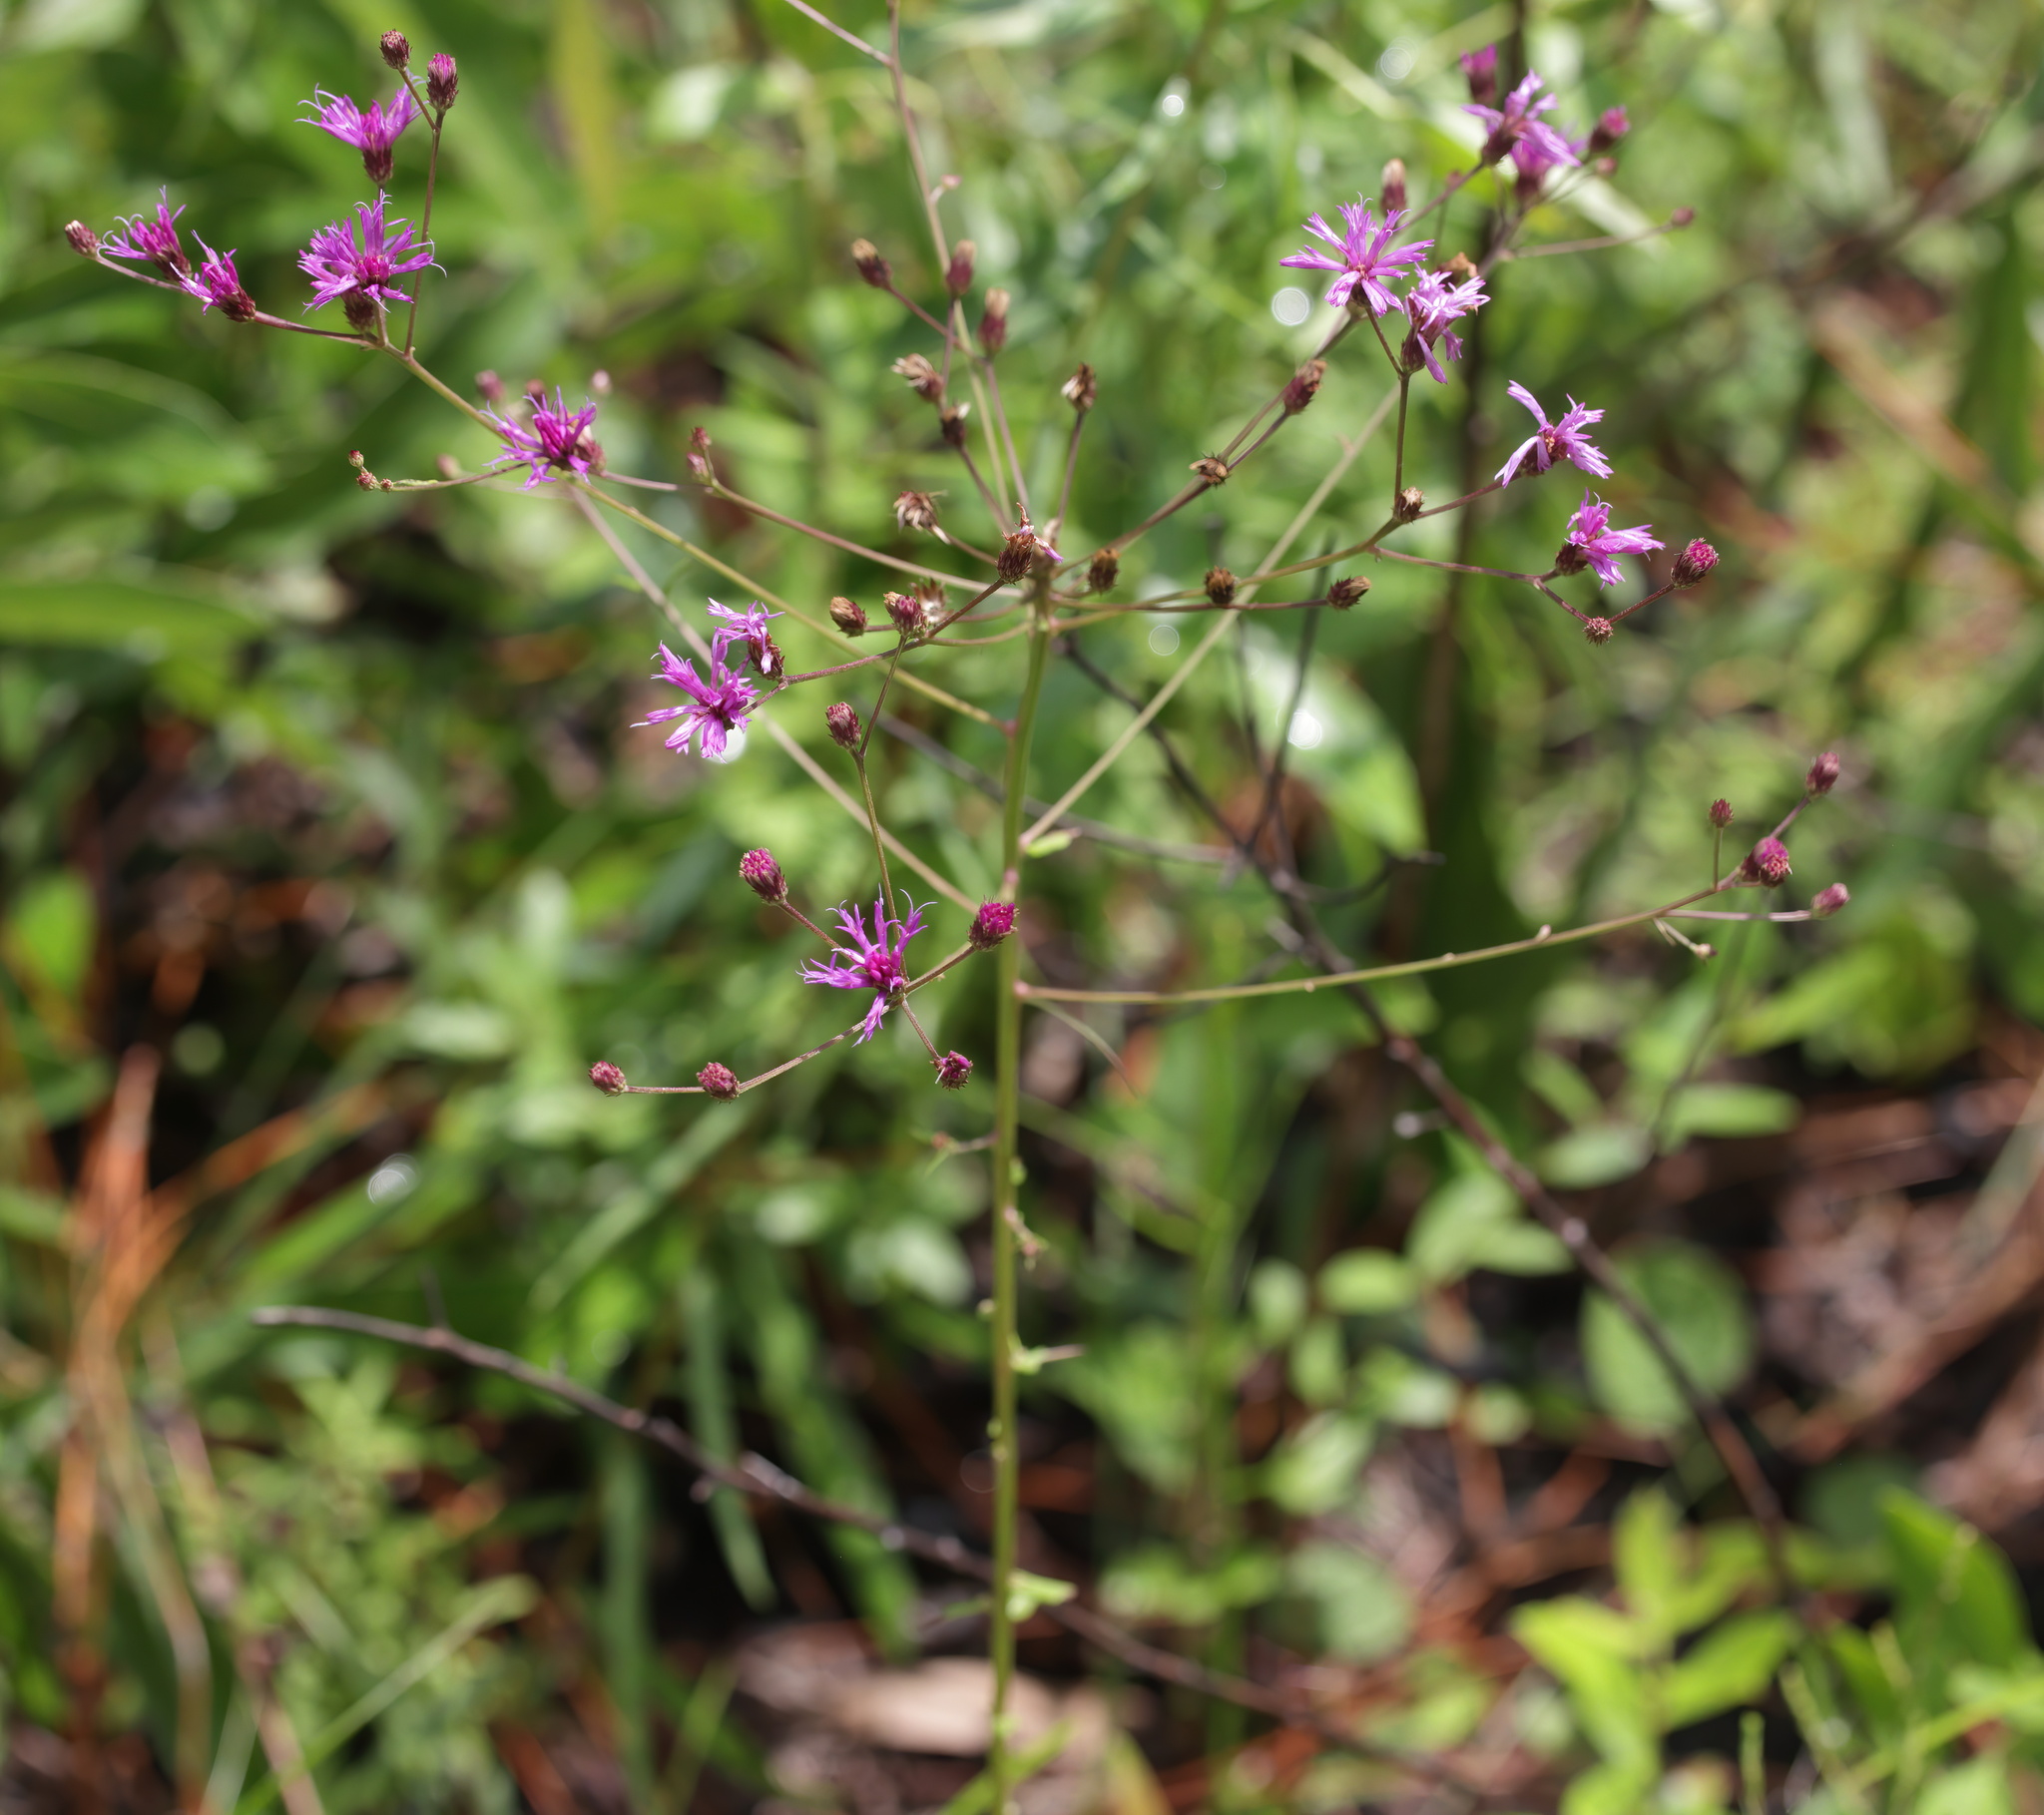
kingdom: Plantae
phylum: Tracheophyta
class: Magnoliopsida
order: Asterales
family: Asteraceae
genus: Vernonia
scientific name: Vernonia angustifolia
